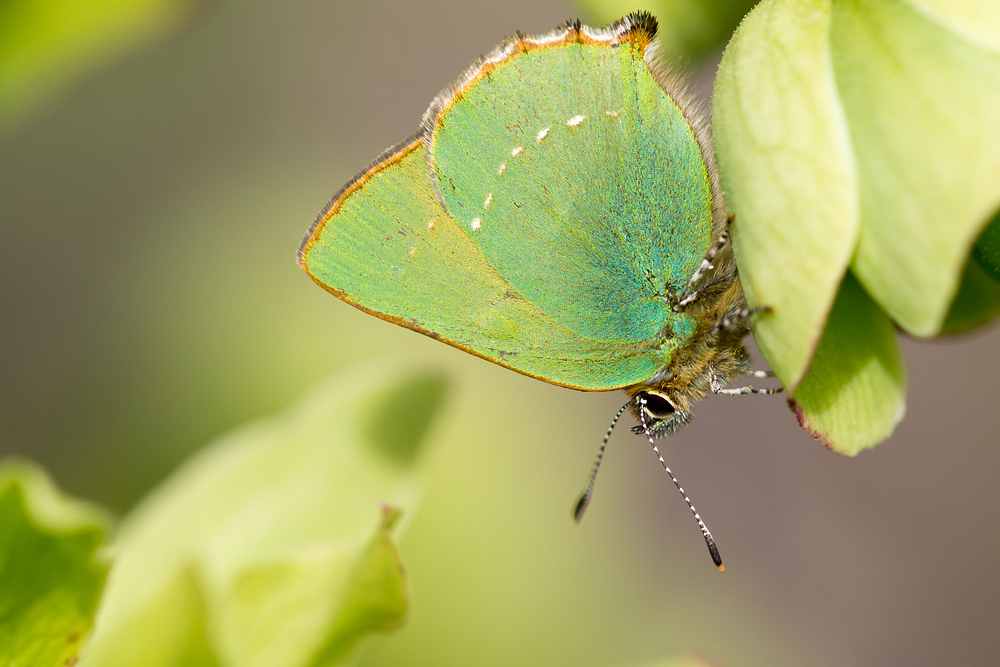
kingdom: Animalia
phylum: Arthropoda
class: Insecta
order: Lepidoptera
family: Lycaenidae
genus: Callophrys
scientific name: Callophrys rubi
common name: Green hairstreak
